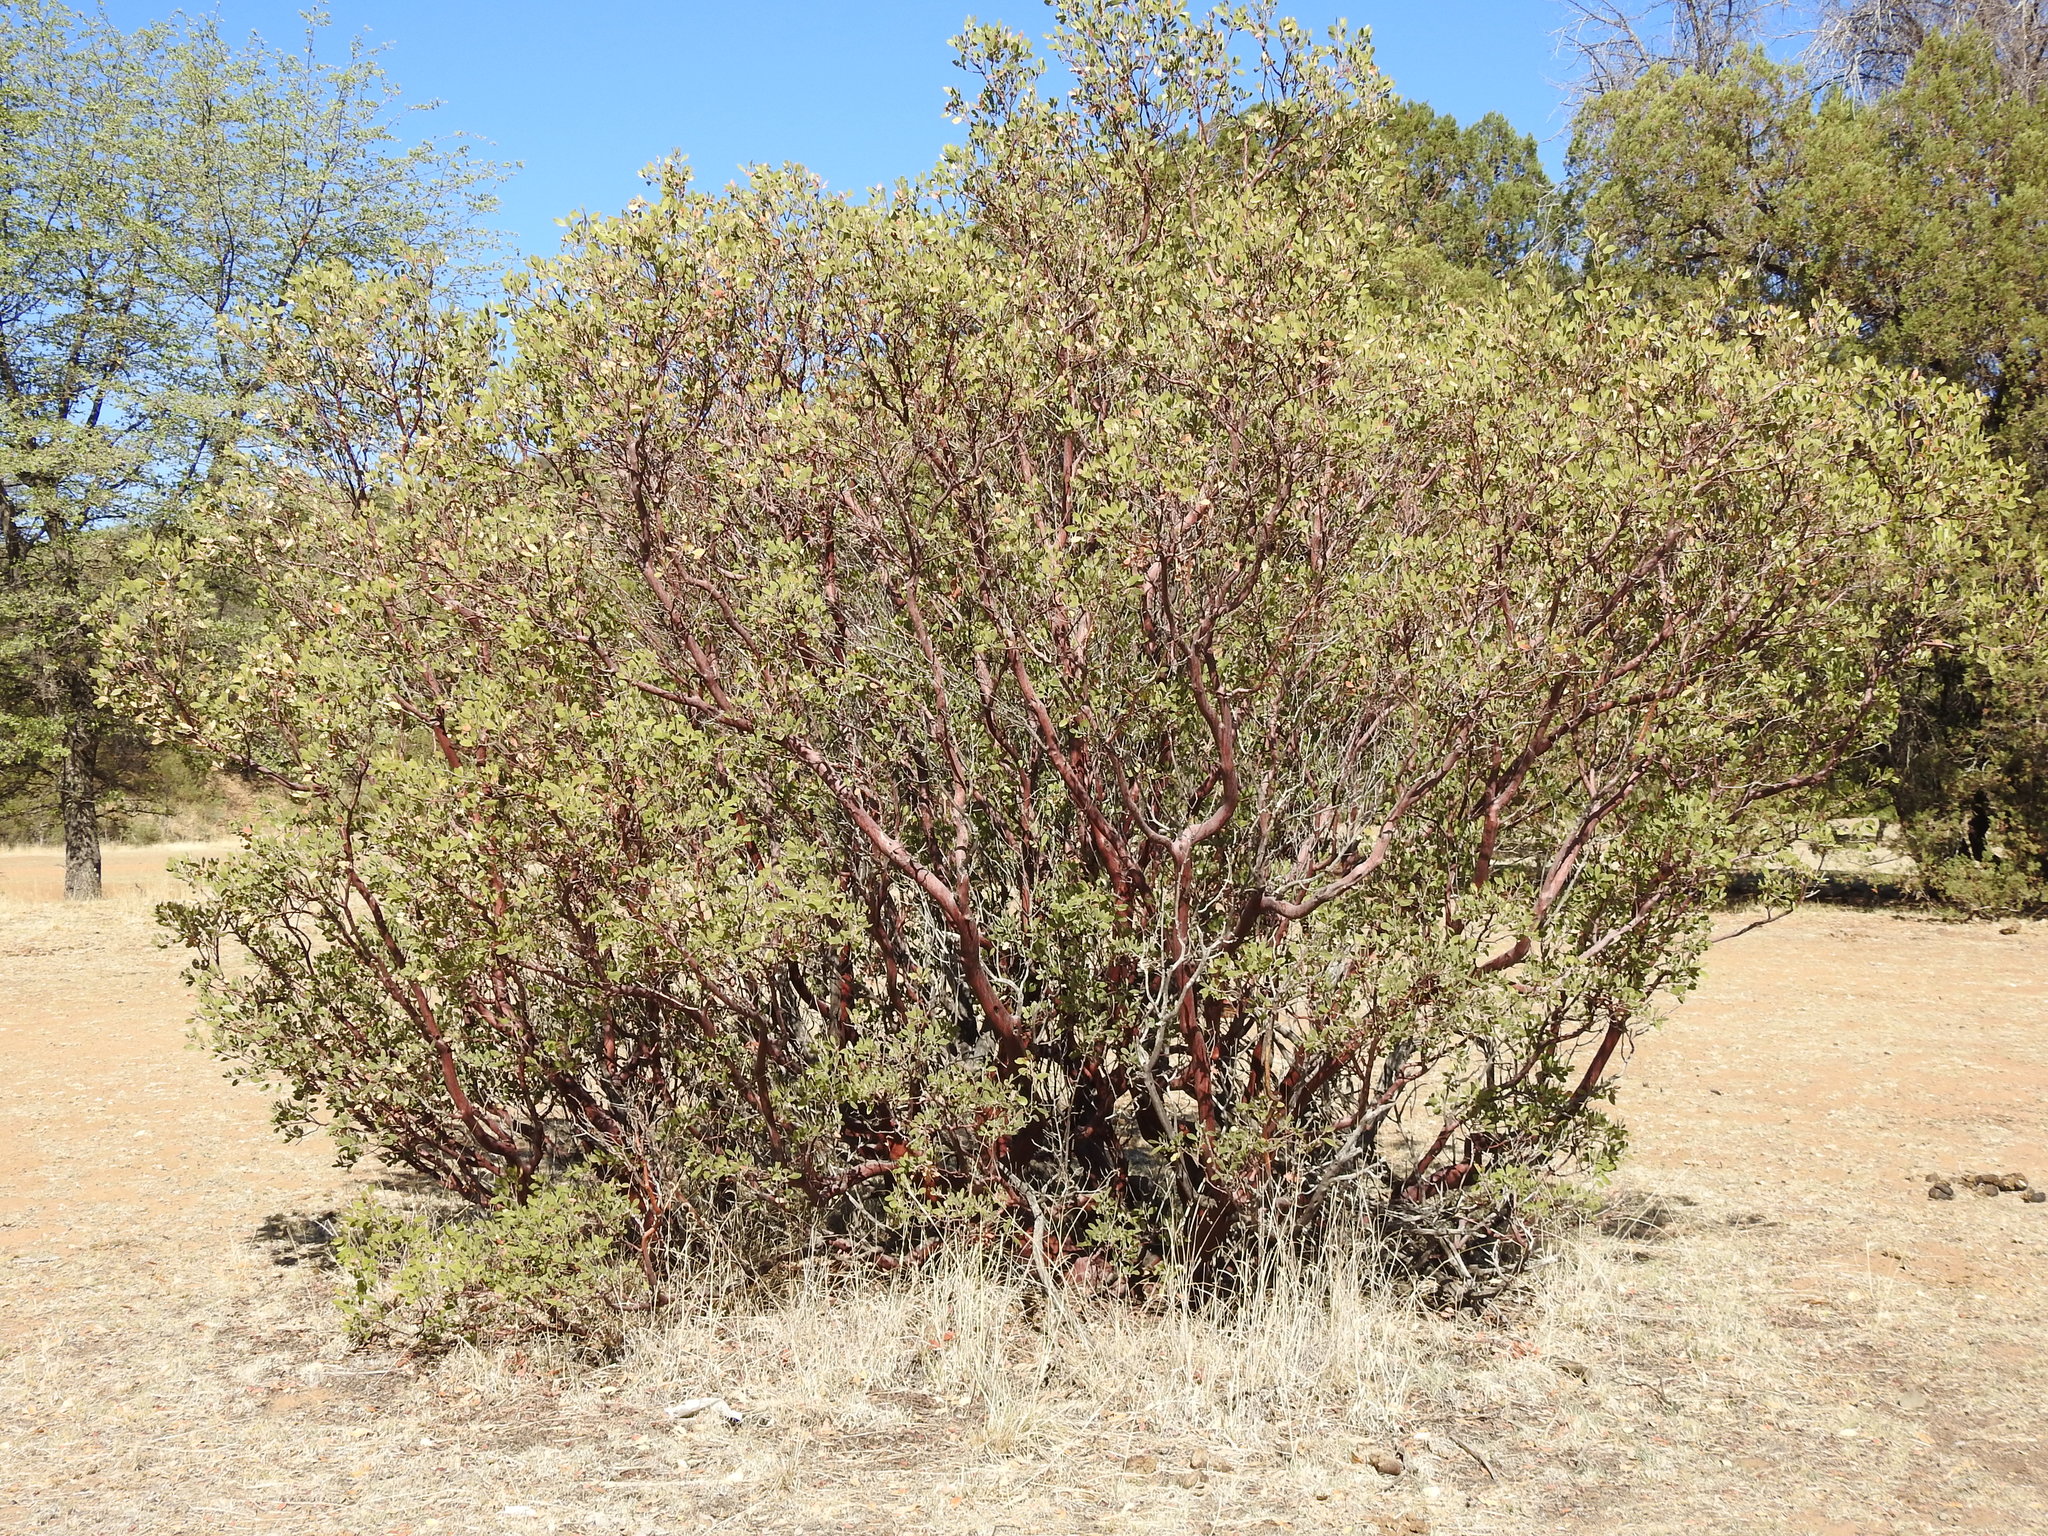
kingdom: Plantae
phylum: Tracheophyta
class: Magnoliopsida
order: Ericales
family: Ericaceae
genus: Arctostaphylos
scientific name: Arctostaphylos pungens
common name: Mexican manzanita
